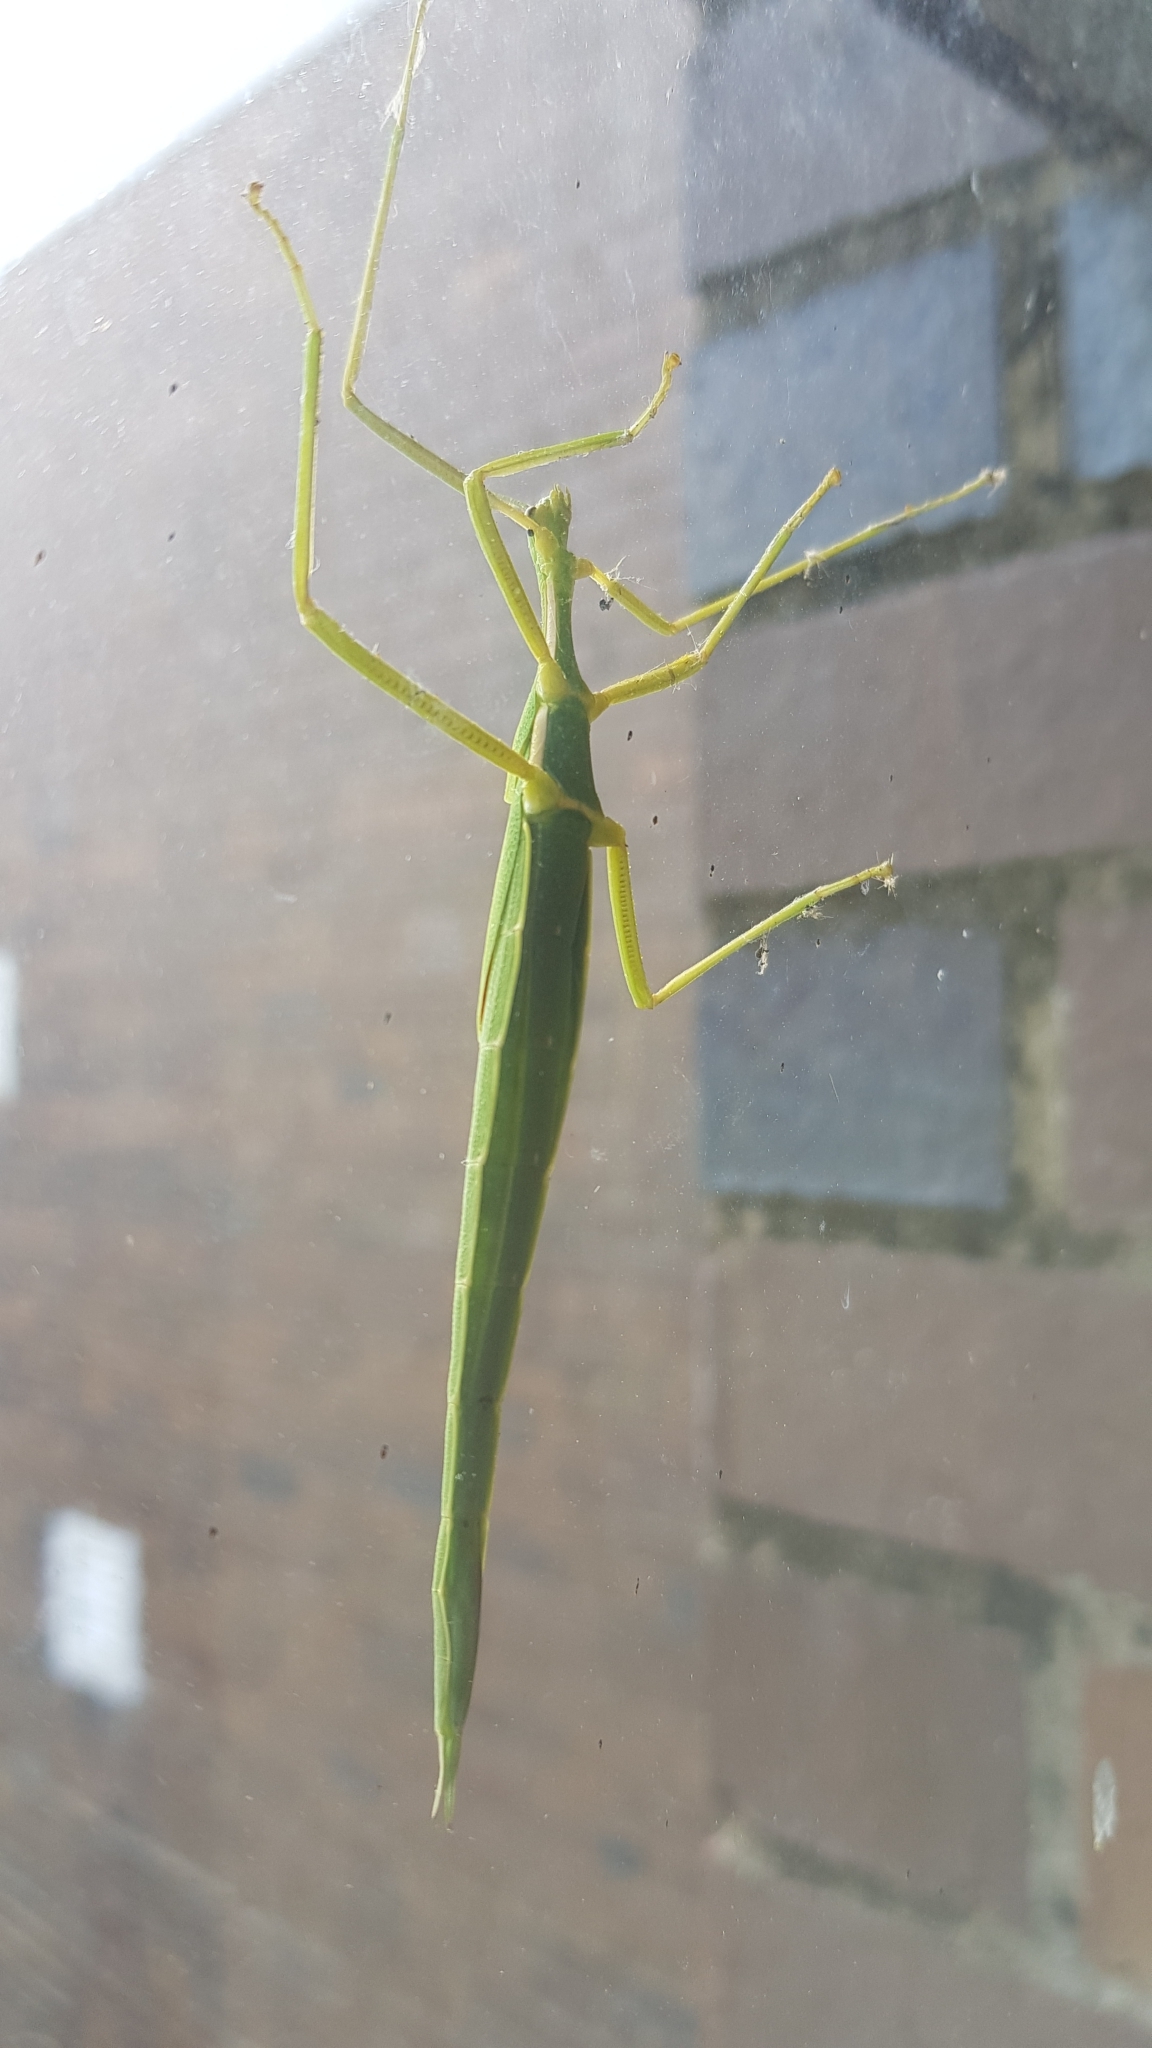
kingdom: Animalia
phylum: Arthropoda
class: Insecta
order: Phasmida
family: Phasmatidae
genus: Didymuria
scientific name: Didymuria violescens
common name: Spur-legged stick-insect
